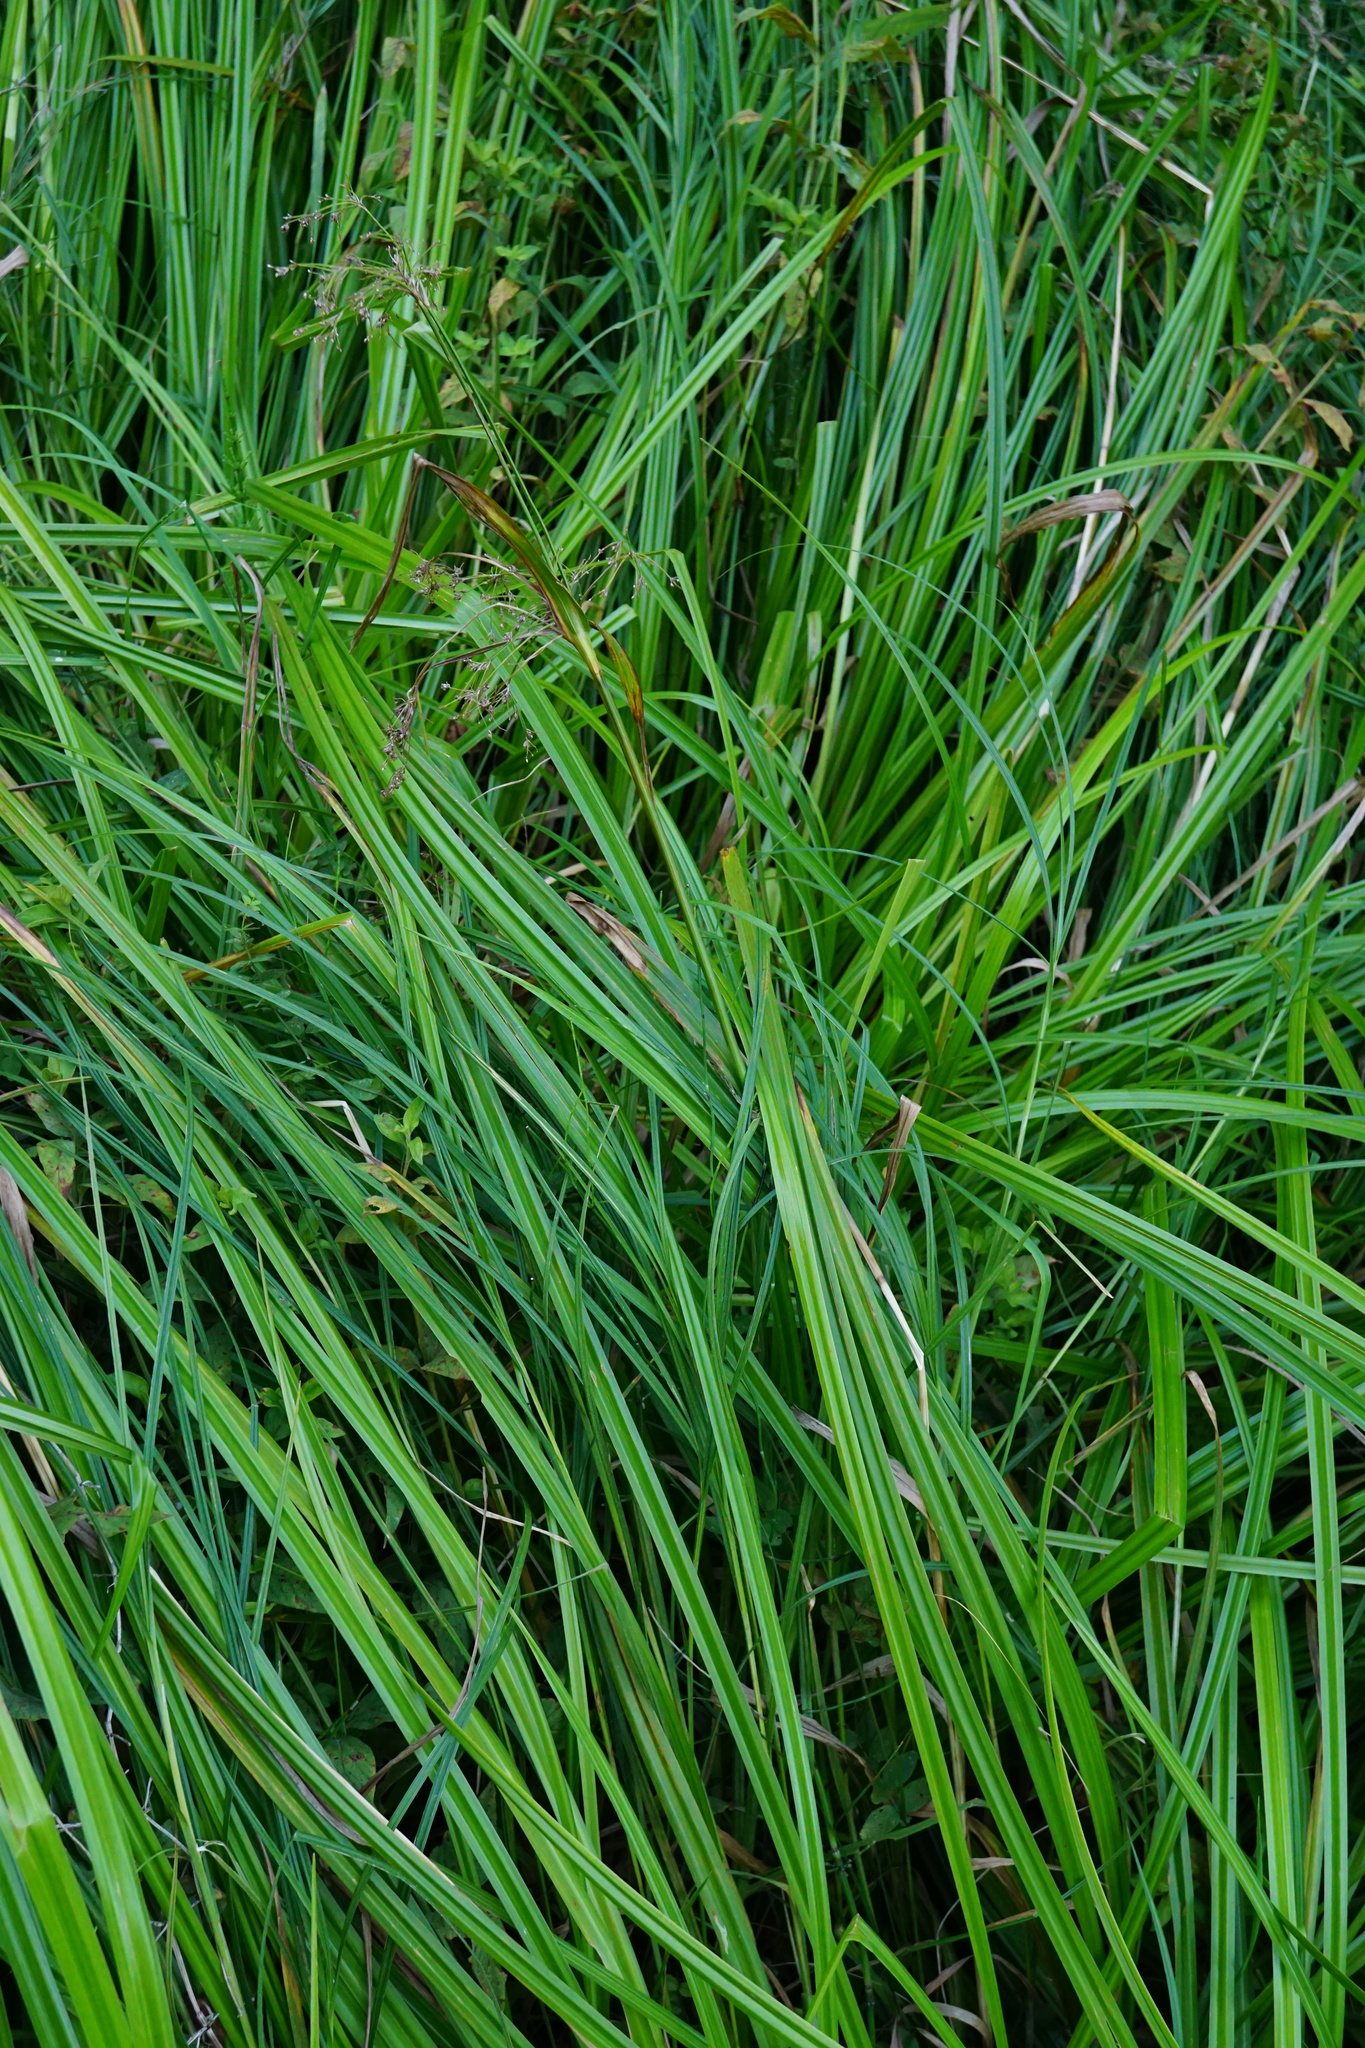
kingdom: Plantae
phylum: Tracheophyta
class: Liliopsida
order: Poales
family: Cyperaceae
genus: Scirpus
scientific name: Scirpus sylvaticus
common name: Wood club-rush
